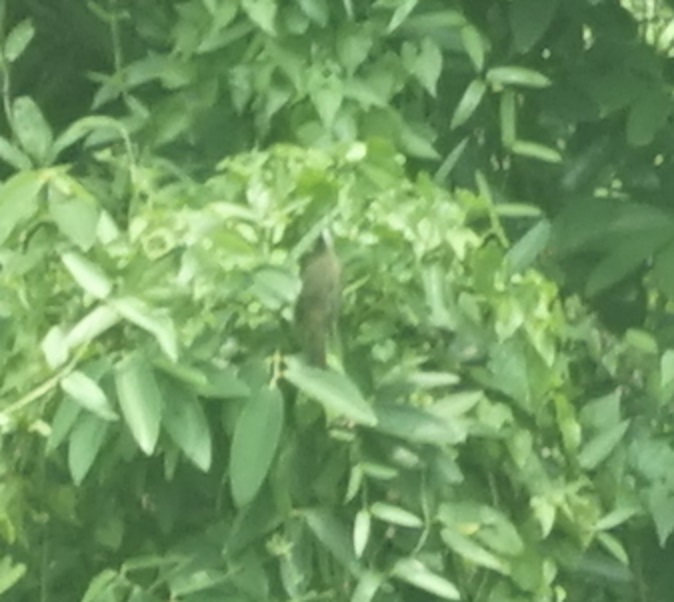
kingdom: Animalia
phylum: Chordata
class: Aves
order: Passeriformes
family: Pycnonotidae
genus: Pycnonotus
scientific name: Pycnonotus goiavier
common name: Yellow-vented bulbul
